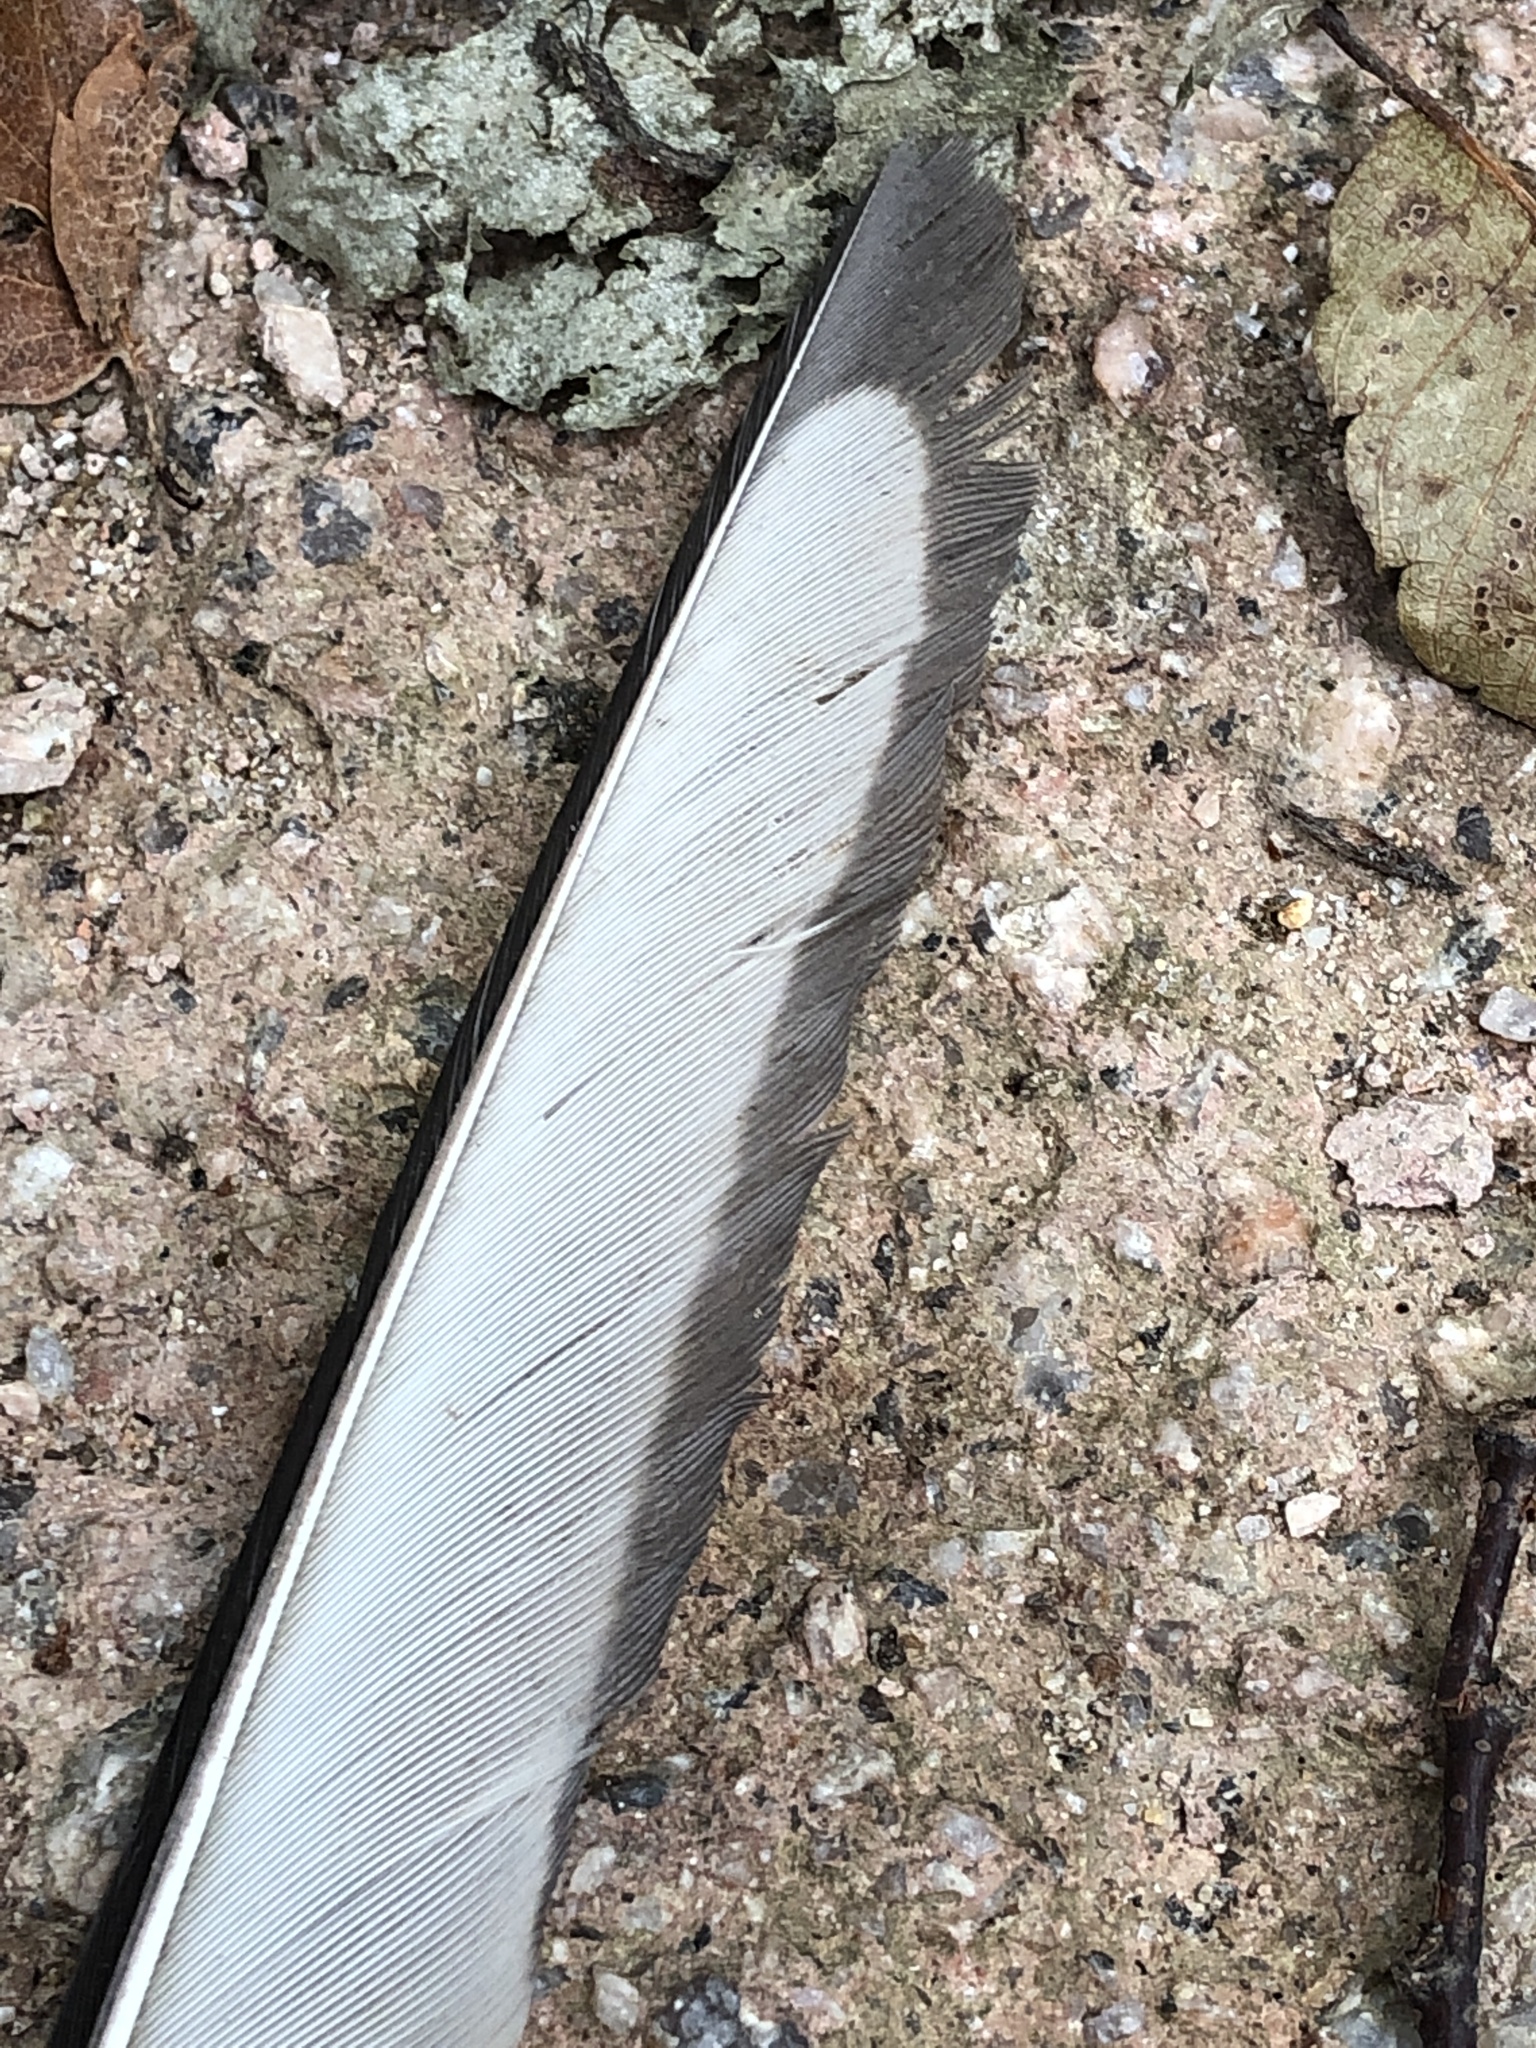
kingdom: Animalia
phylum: Chordata
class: Aves
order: Passeriformes
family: Corvidae
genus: Pica
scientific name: Pica serica
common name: Oriental magpie
